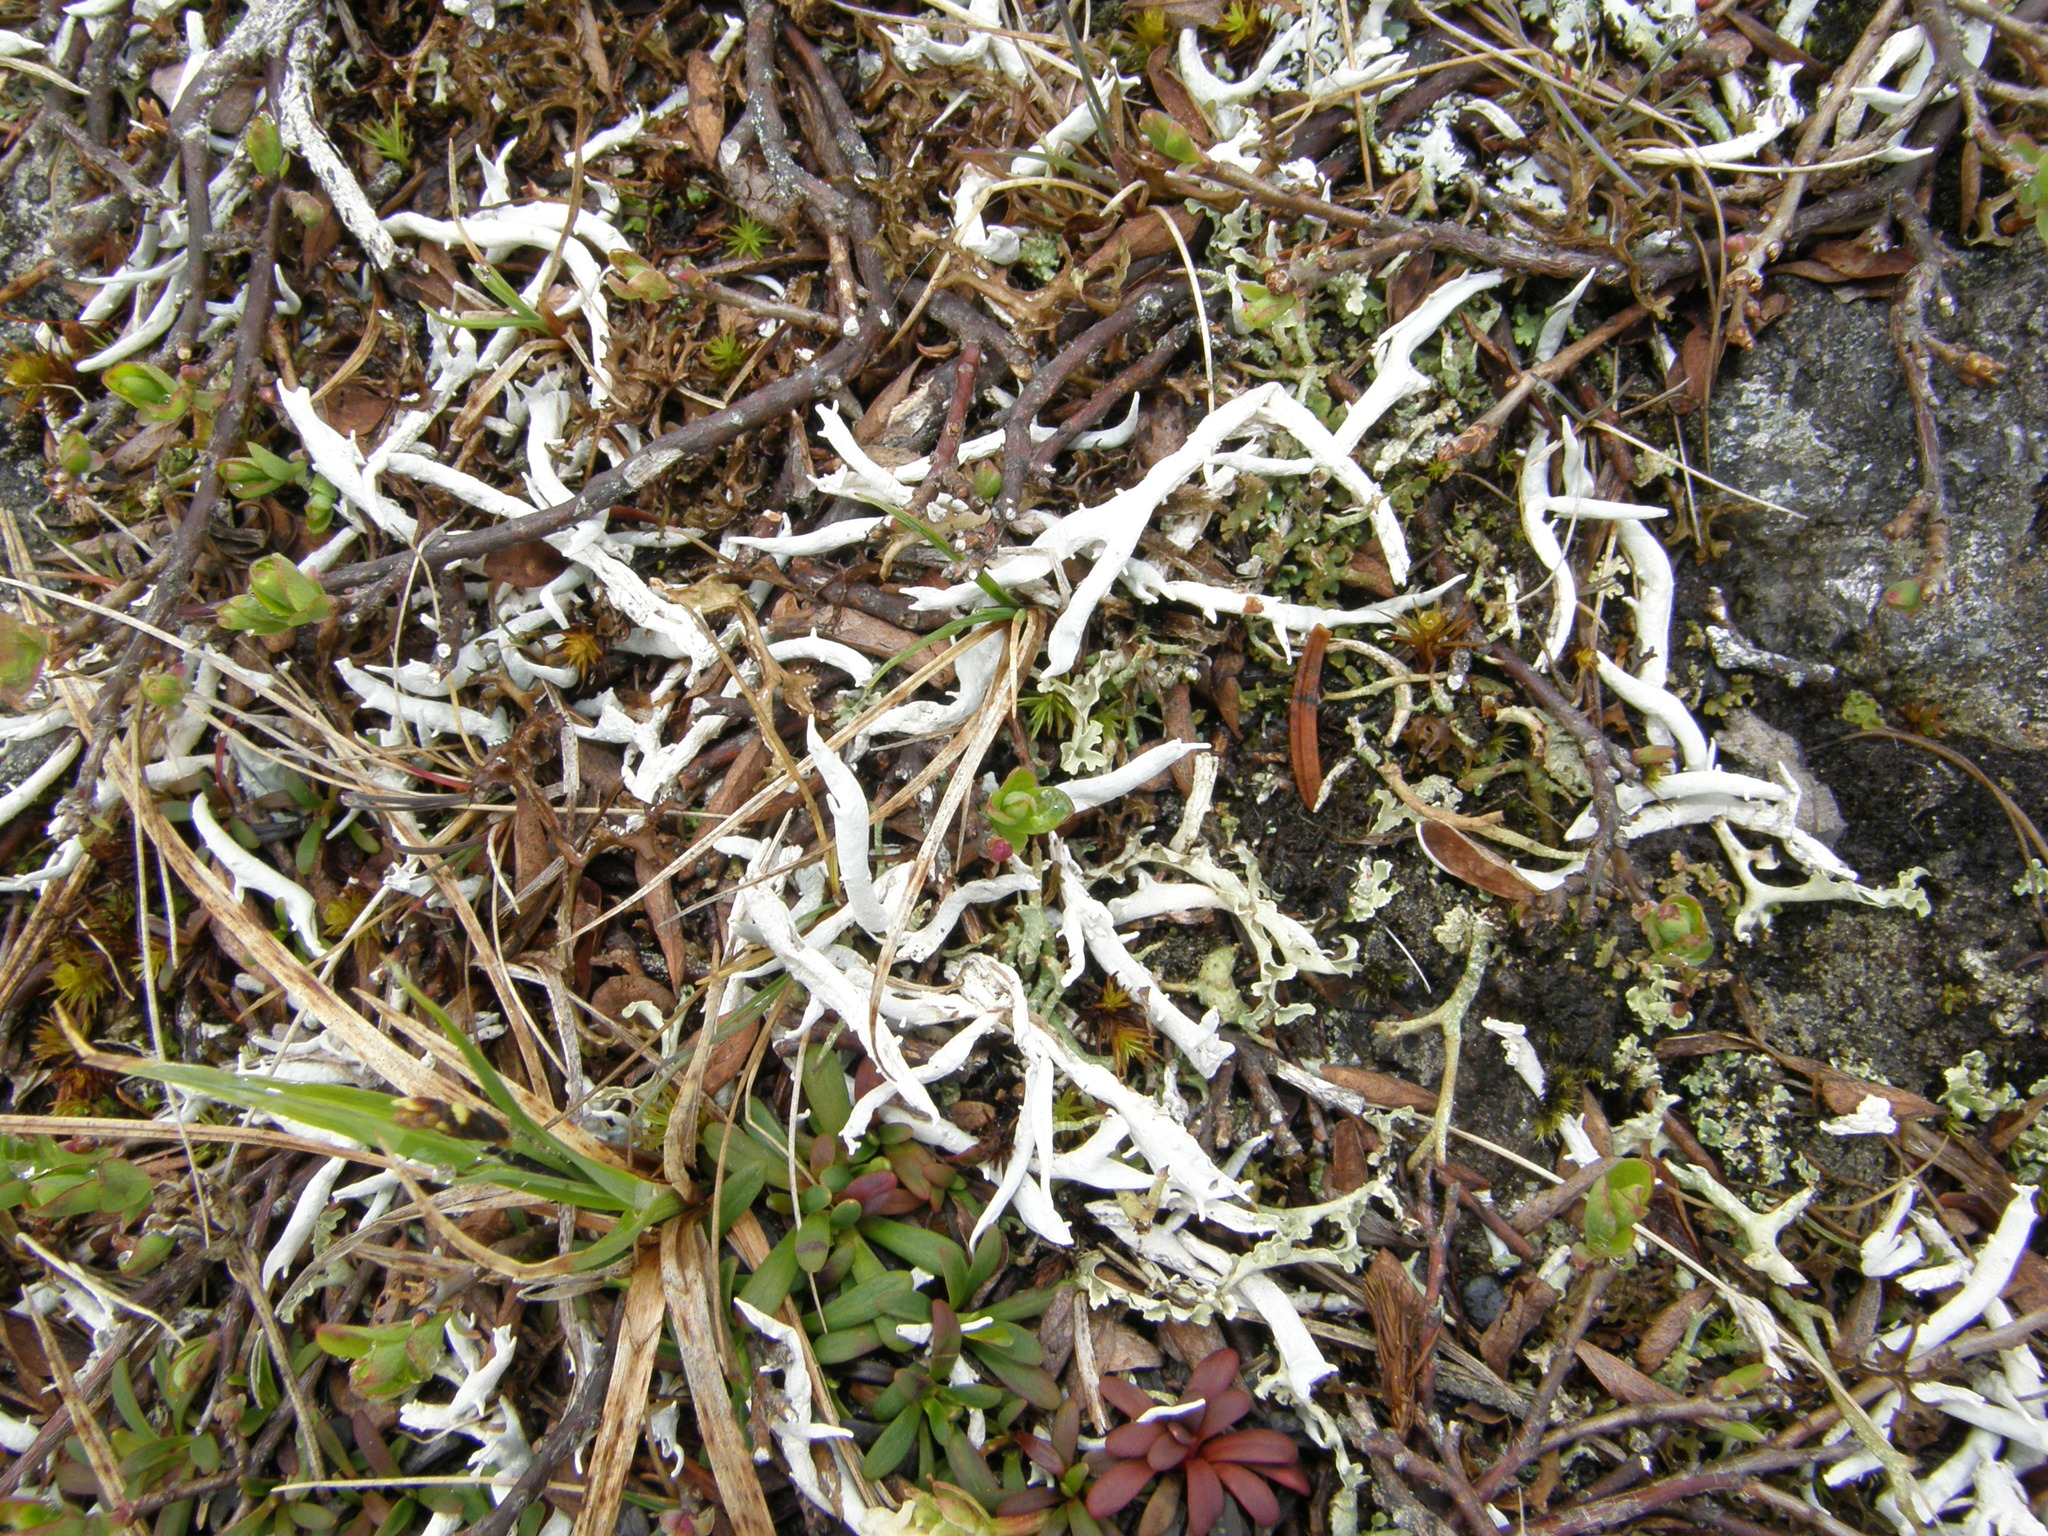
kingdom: Fungi
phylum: Ascomycota
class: Lecanoromycetes
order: Pertusariales
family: Icmadophilaceae
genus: Thamnolia
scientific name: Thamnolia vermicularis
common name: Whiteworm lichen
